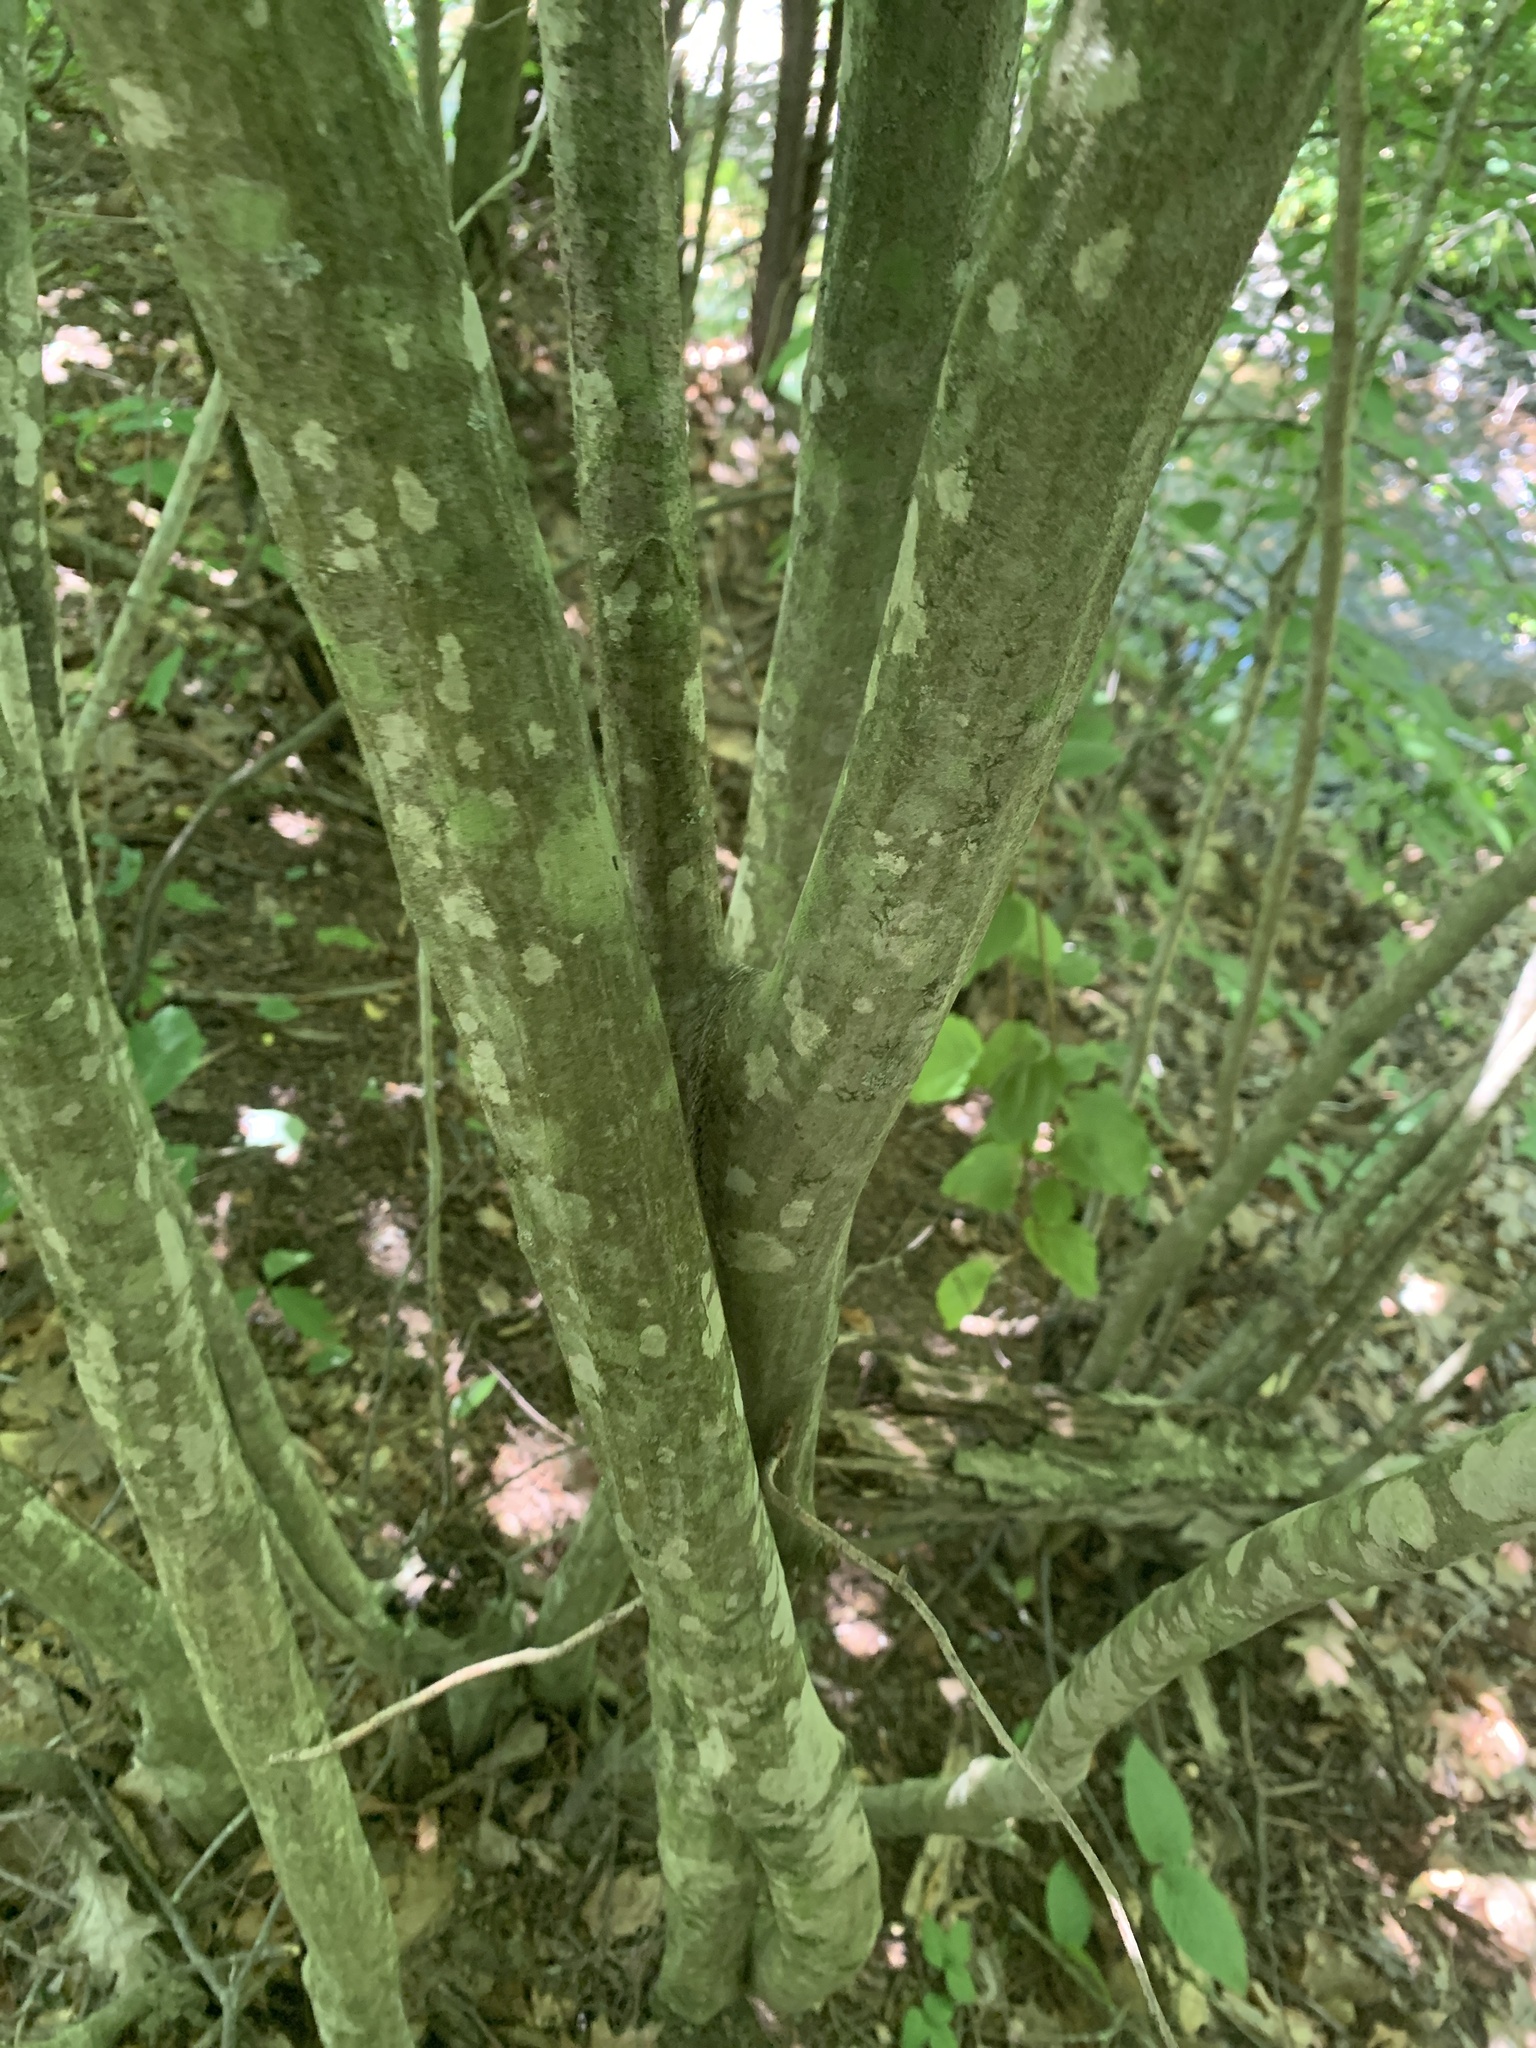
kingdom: Plantae
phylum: Tracheophyta
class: Magnoliopsida
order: Fagales
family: Betulaceae
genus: Carpinus
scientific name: Carpinus caroliniana
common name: American hornbeam
